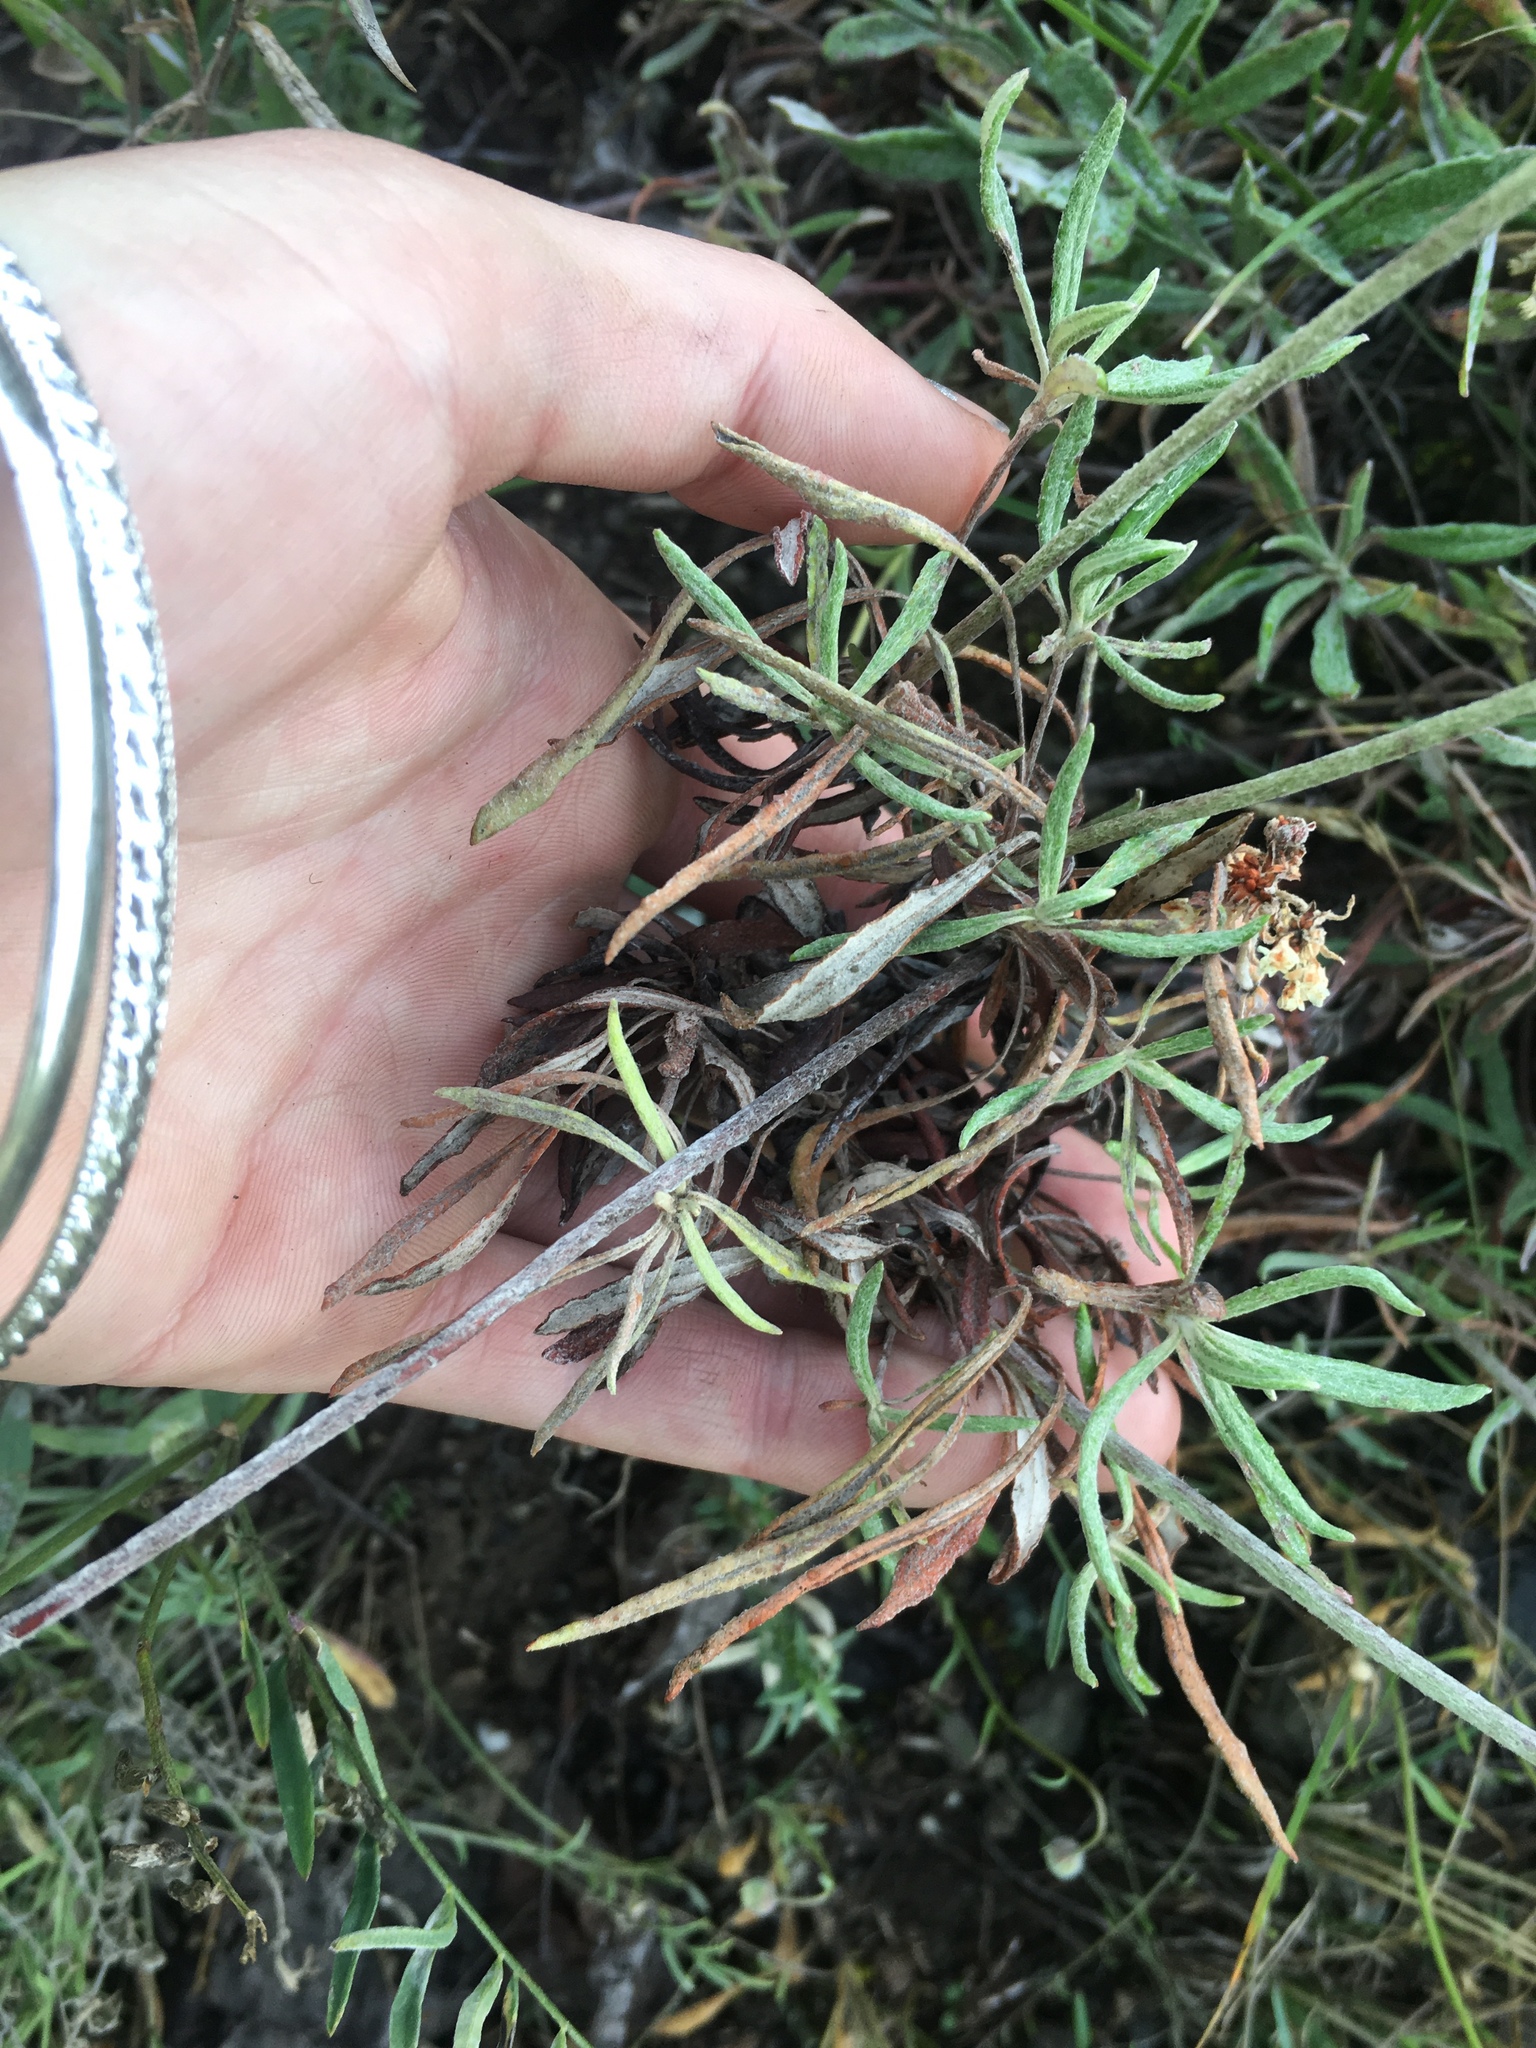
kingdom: Plantae
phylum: Tracheophyta
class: Magnoliopsida
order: Caryophyllales
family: Polygonaceae
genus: Eriogonum
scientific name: Eriogonum heracleoides
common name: Wyeth's buckwheat
